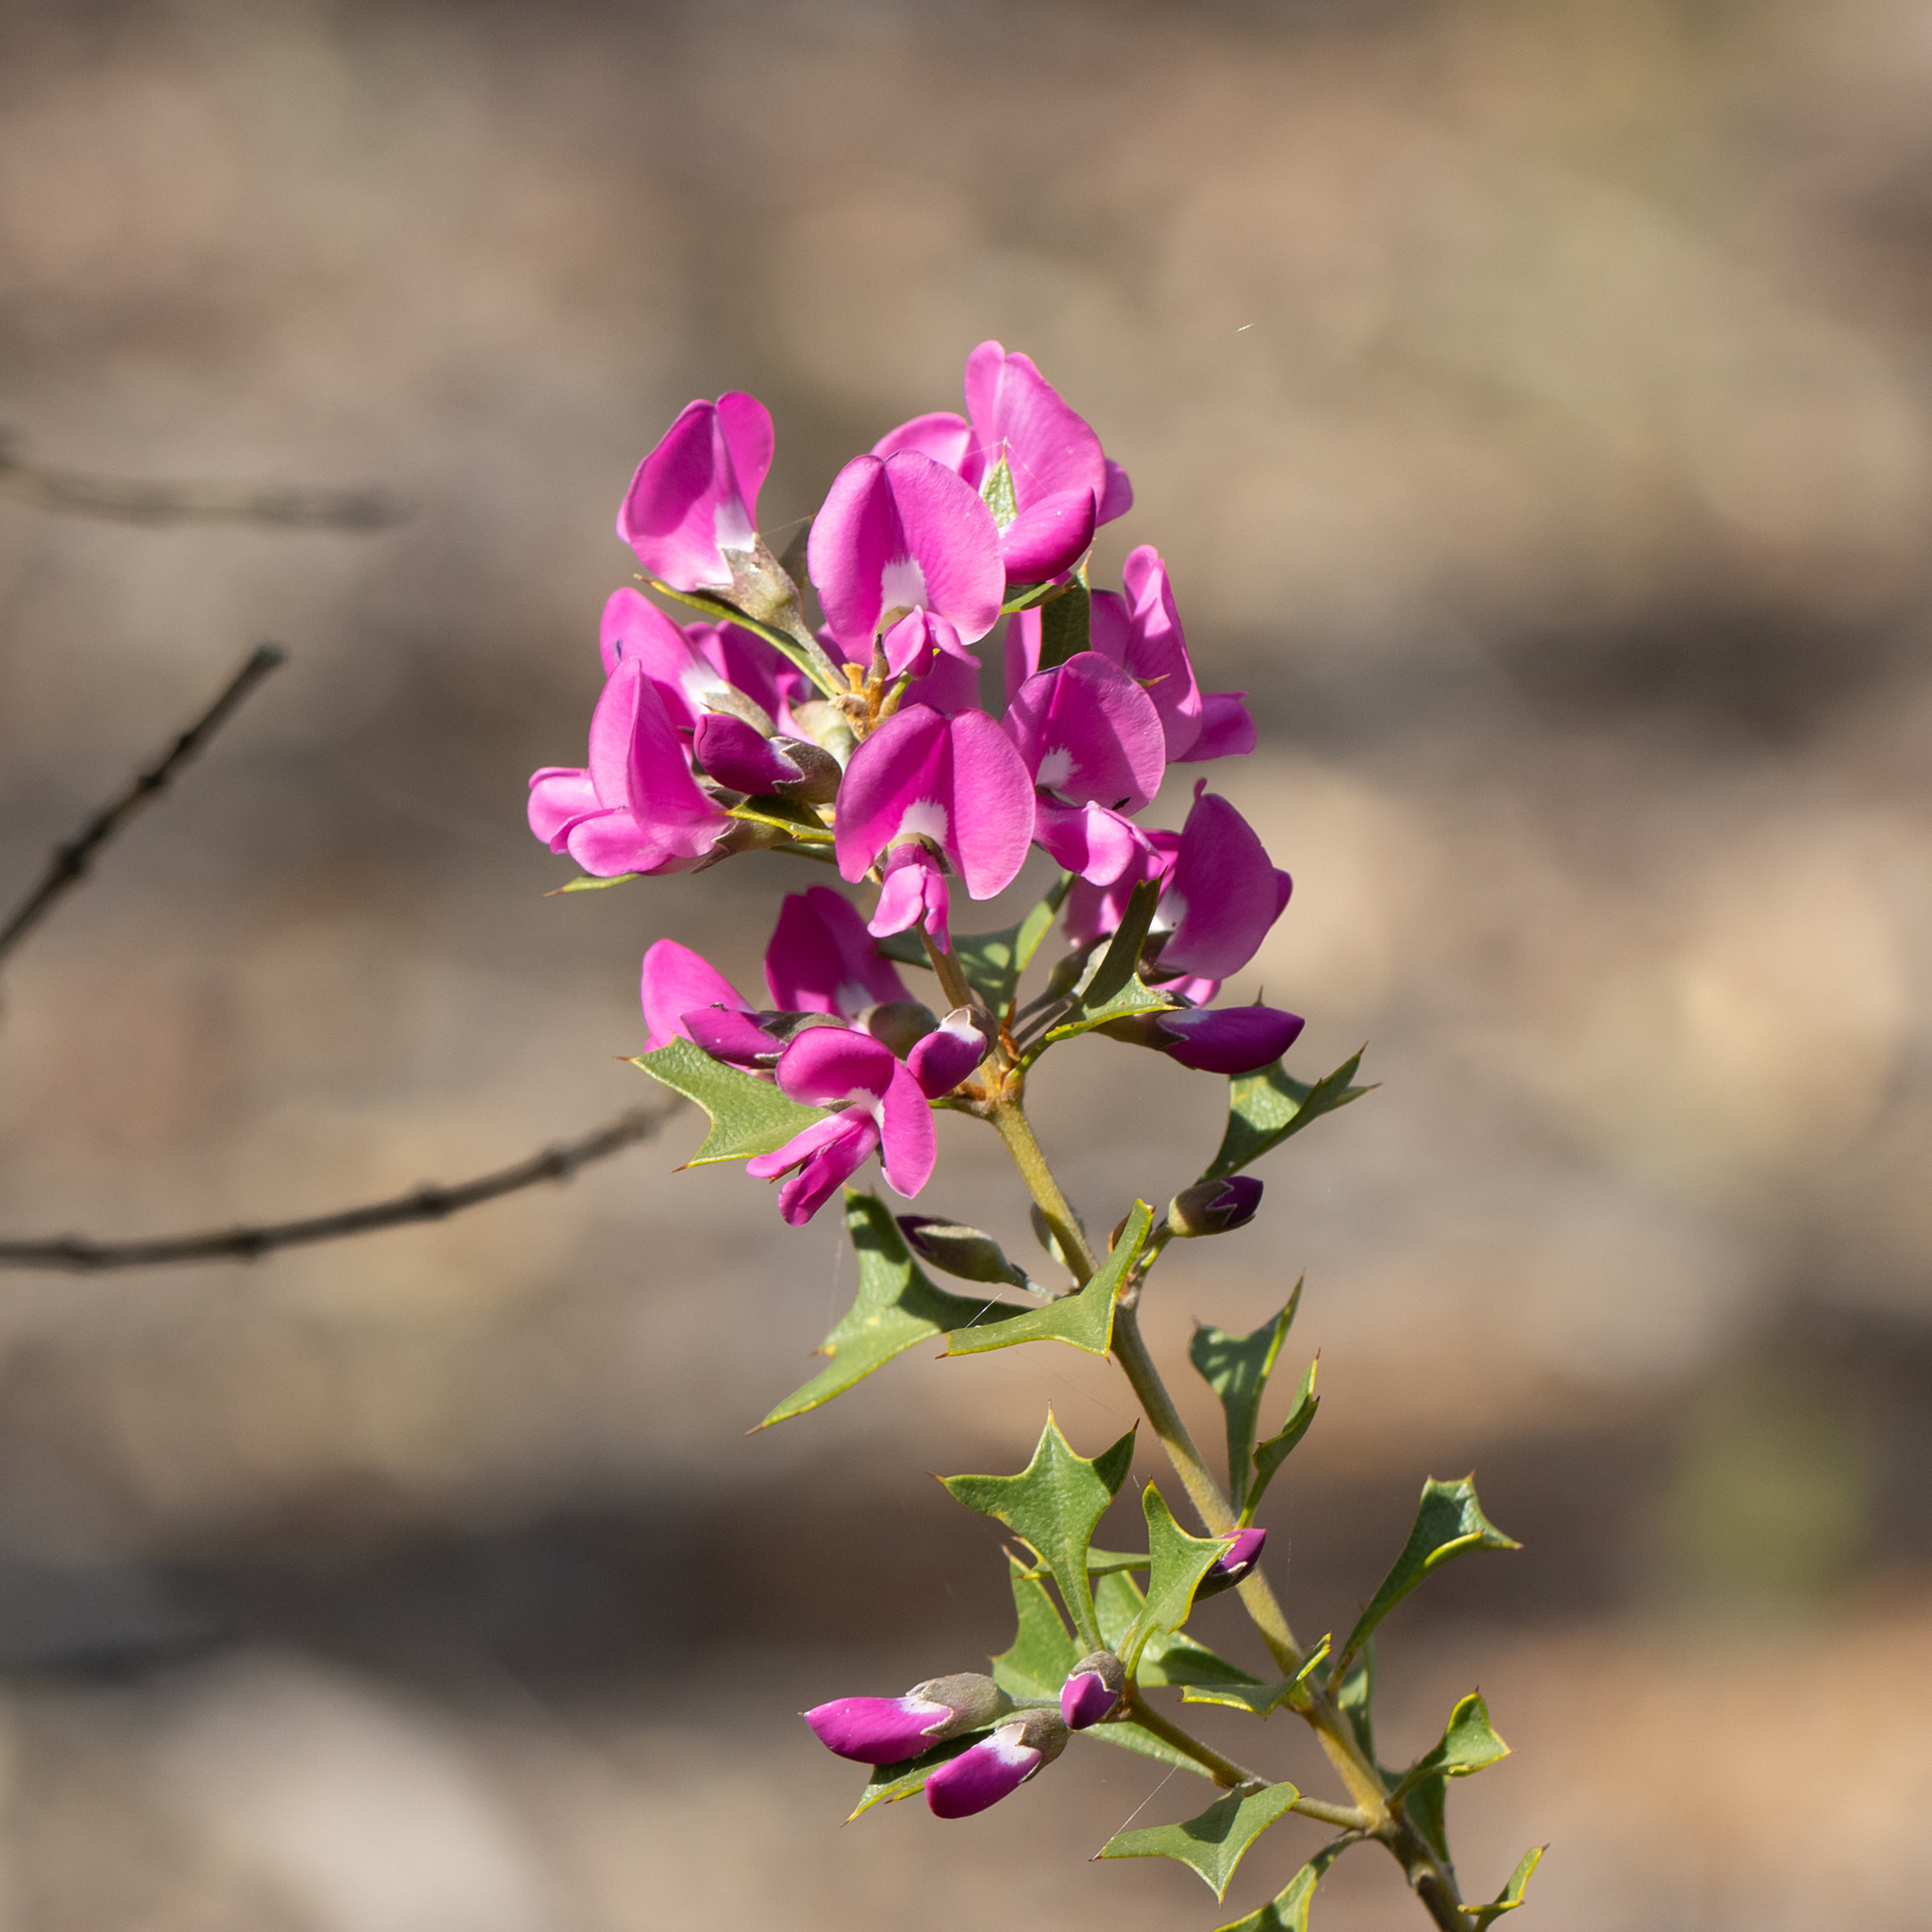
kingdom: Plantae
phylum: Tracheophyta
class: Magnoliopsida
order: Fabales
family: Fabaceae
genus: Mirbelia
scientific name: Mirbelia dilatata
